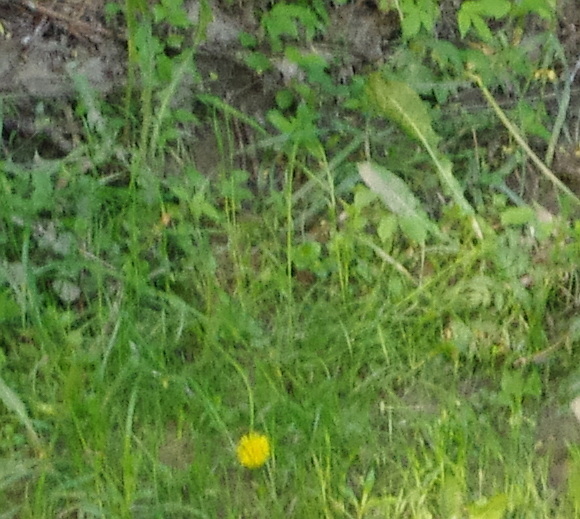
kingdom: Plantae
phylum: Tracheophyta
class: Magnoliopsida
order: Asterales
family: Asteraceae
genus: Taraxacum
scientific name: Taraxacum officinale
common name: Common dandelion
